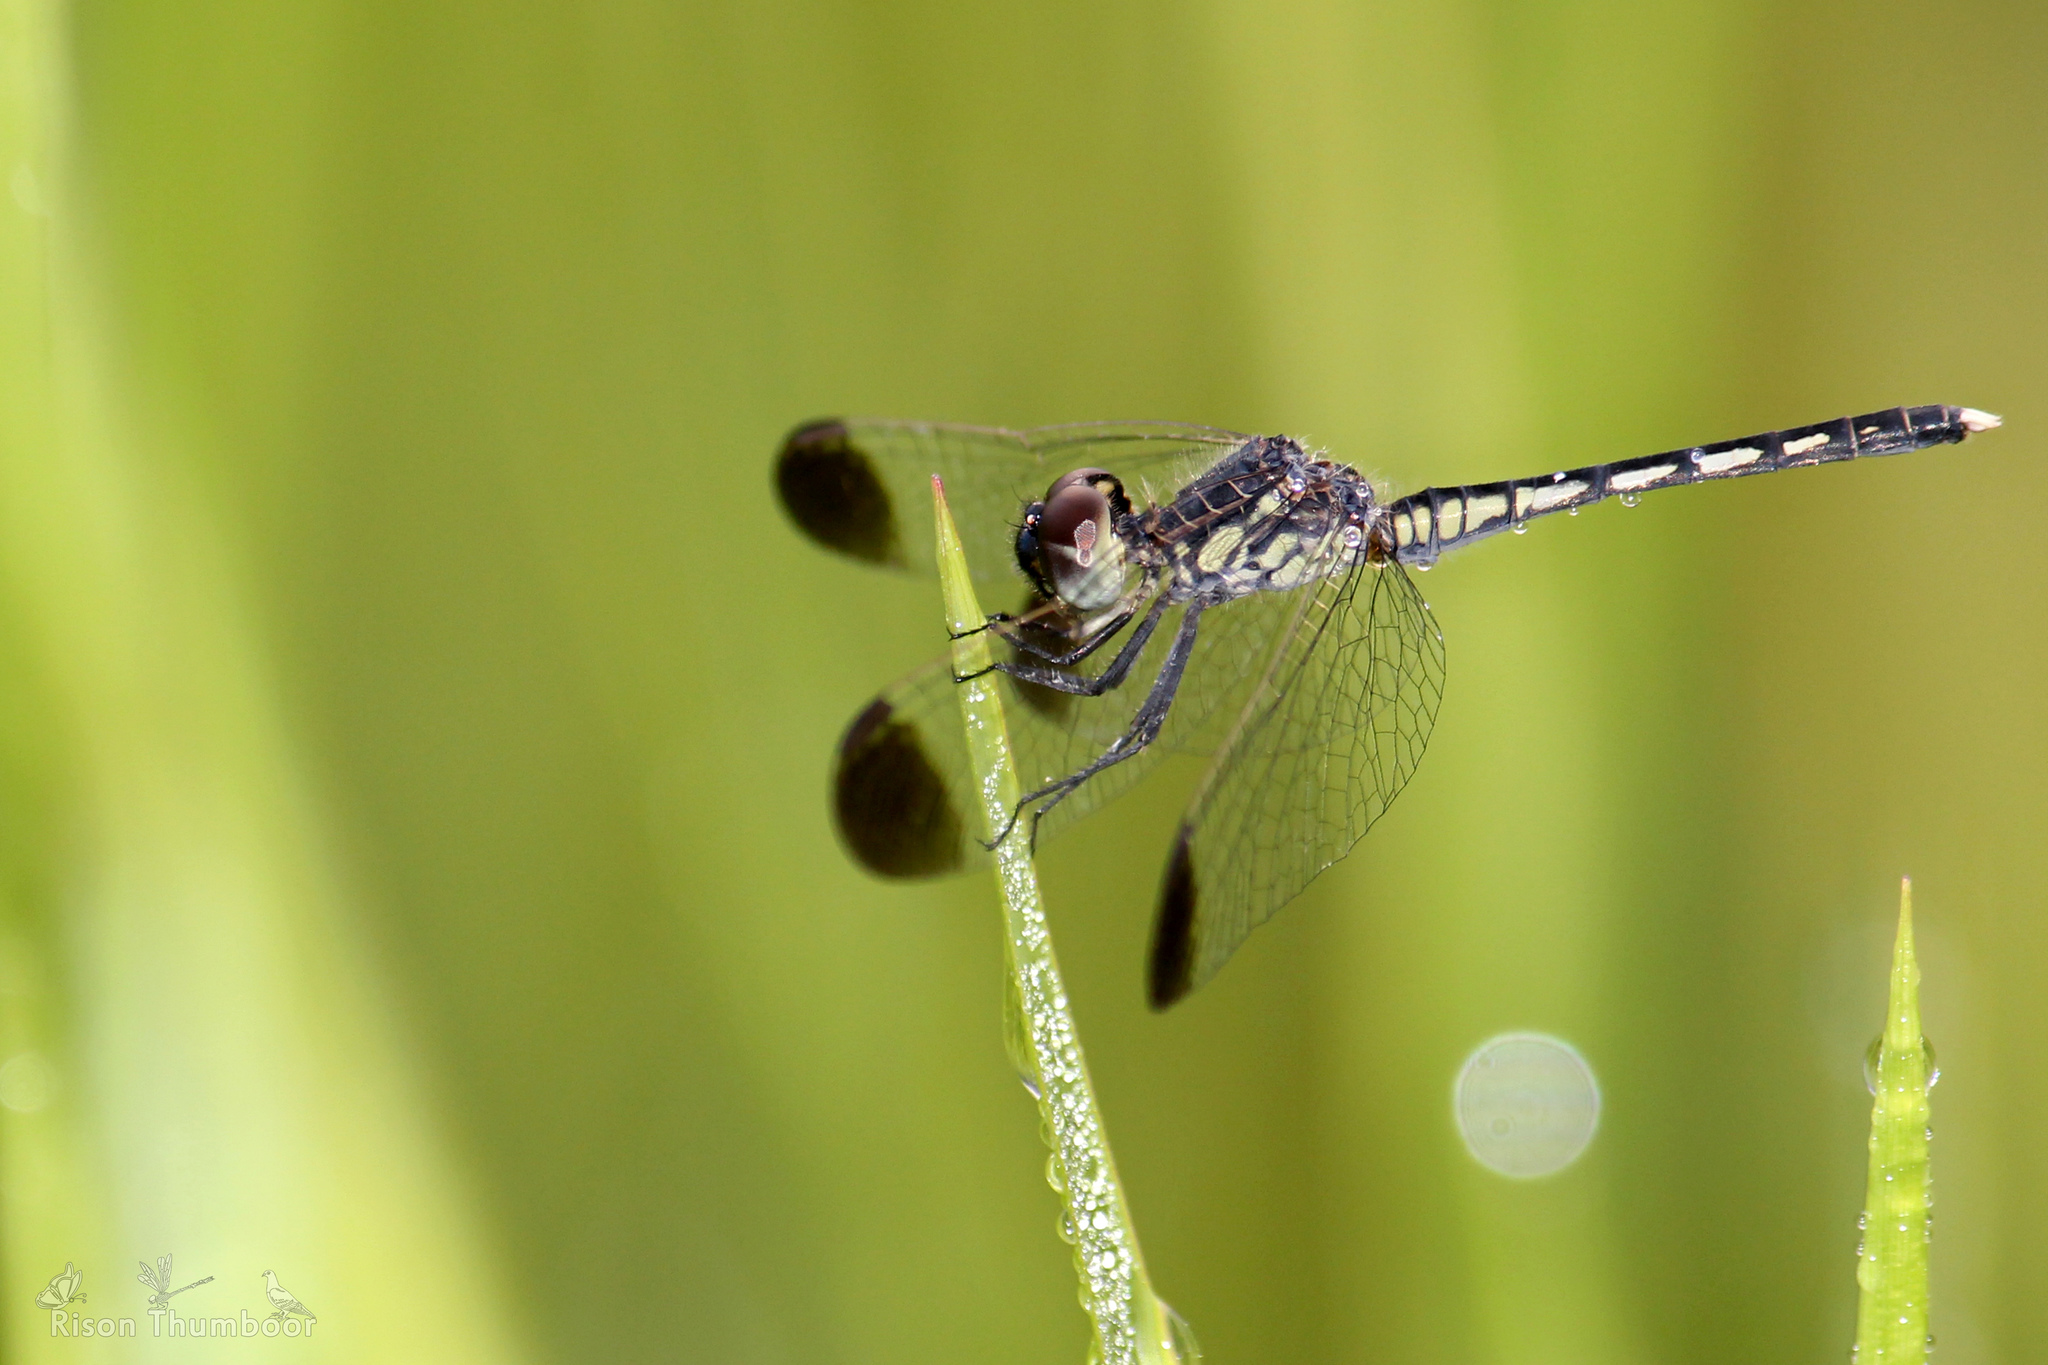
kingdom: Animalia
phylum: Arthropoda
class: Insecta
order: Odonata
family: Libellulidae
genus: Diplacodes
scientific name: Diplacodes nebulosa
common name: Black-tipped percher
